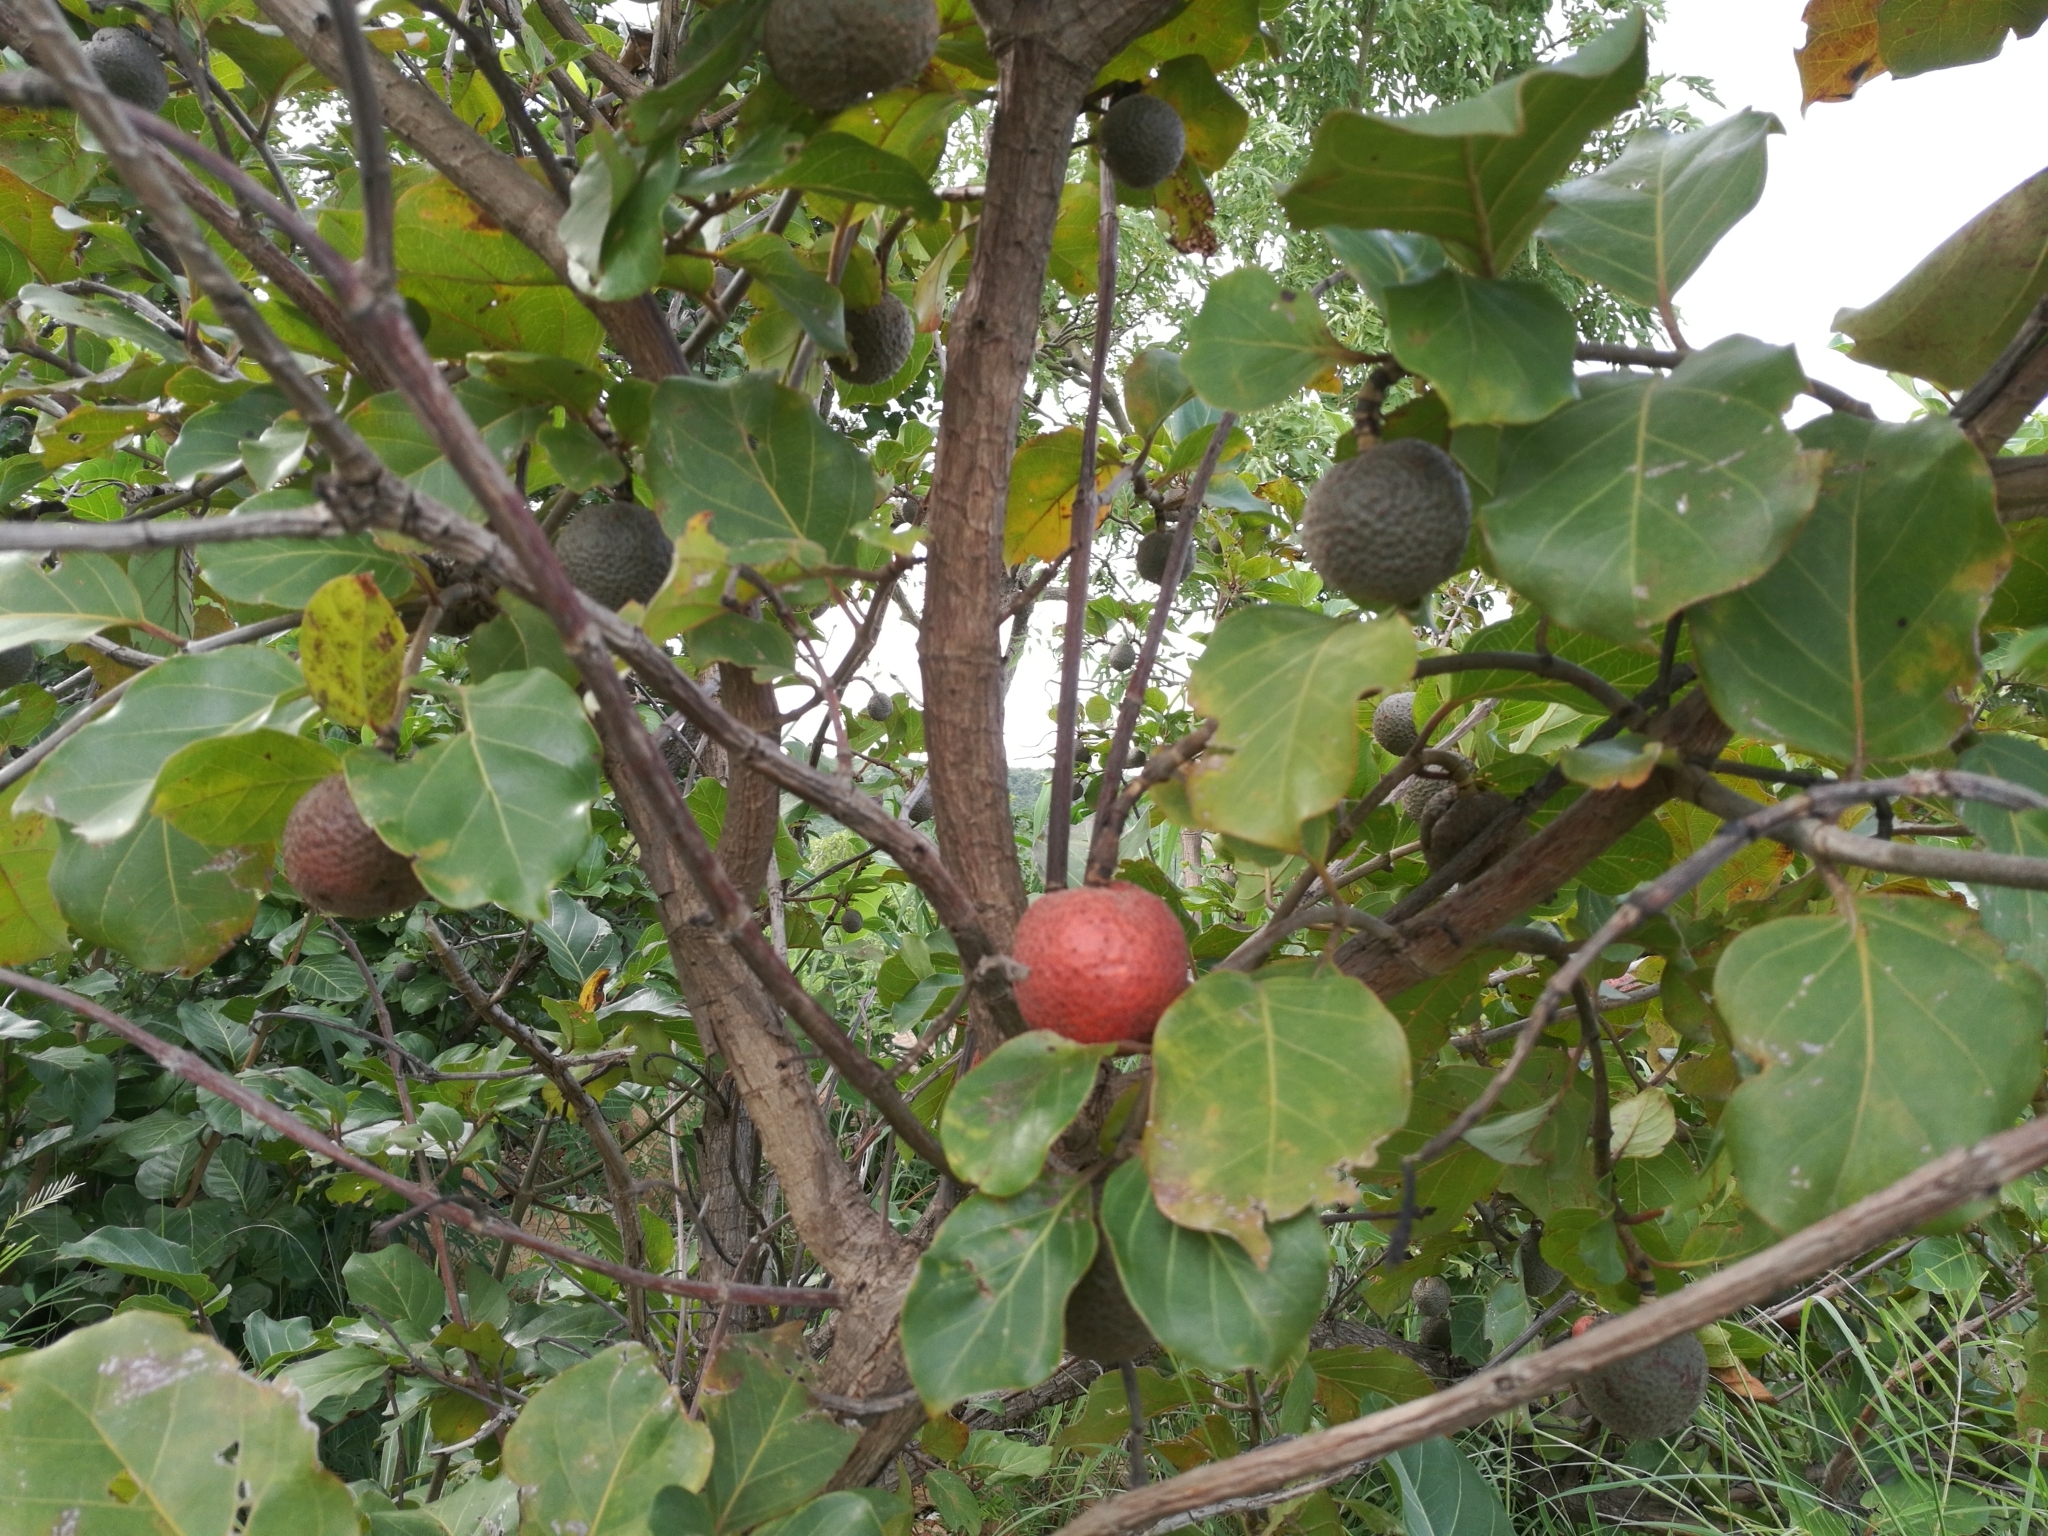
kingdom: Plantae
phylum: Tracheophyta
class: Magnoliopsida
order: Gentianales
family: Rubiaceae
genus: Nauclea
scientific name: Nauclea latifolia
